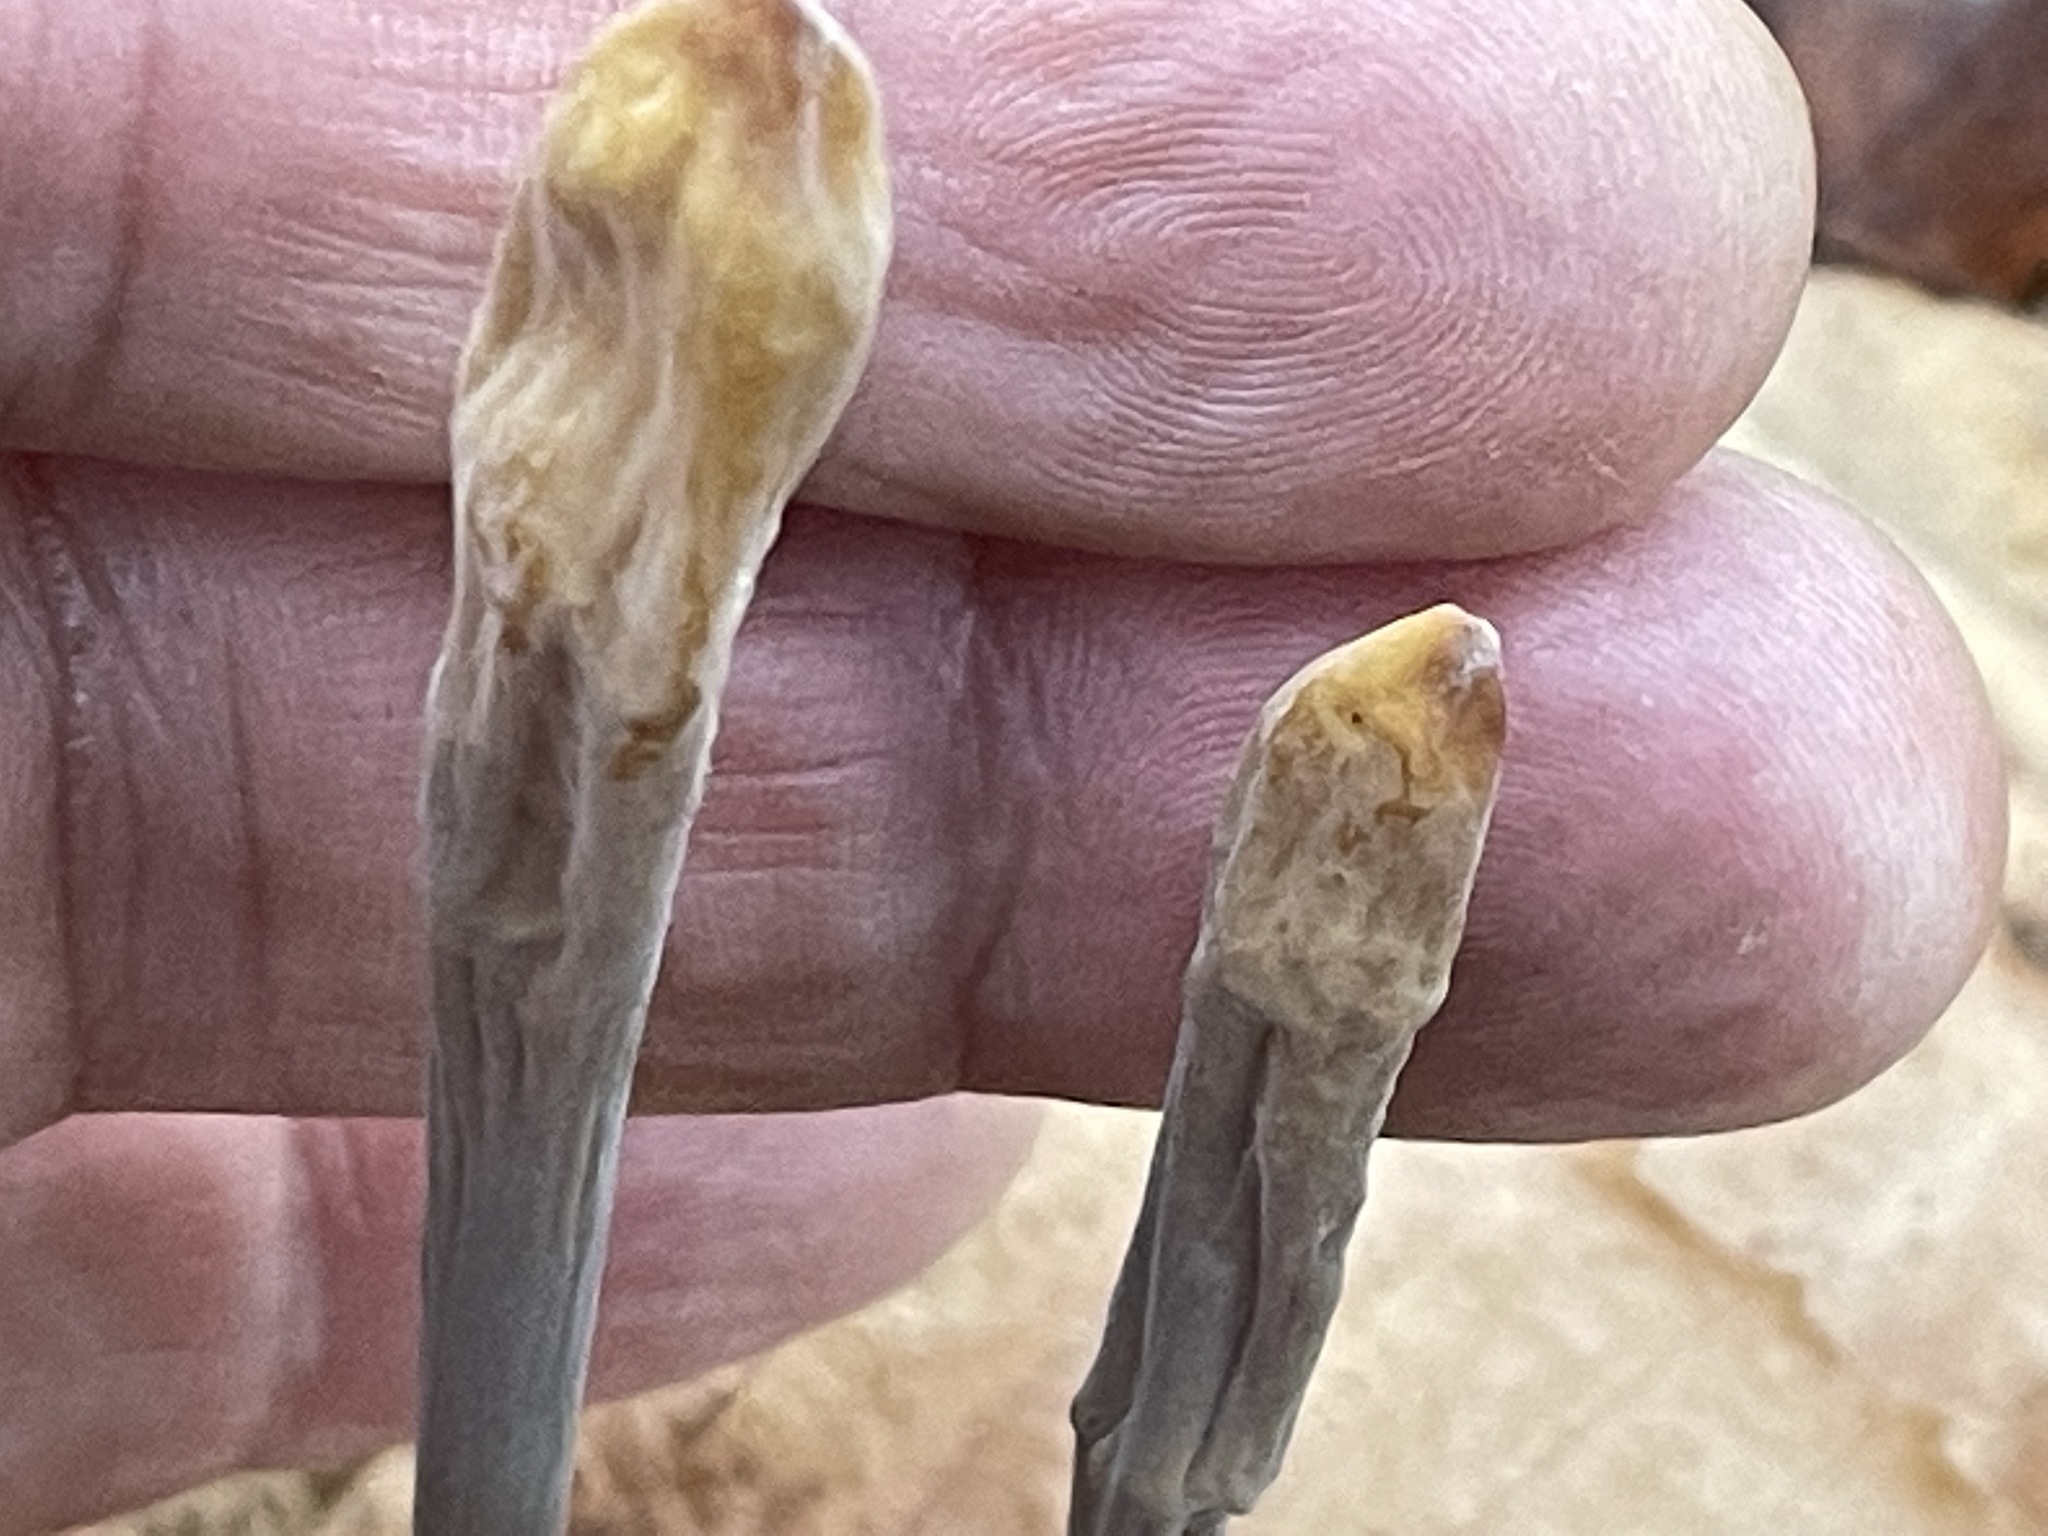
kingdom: Fungi
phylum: Basidiomycota
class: Agaricomycetes
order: Agaricales
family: Typhulaceae
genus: Typhula
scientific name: Typhula fistulosa
